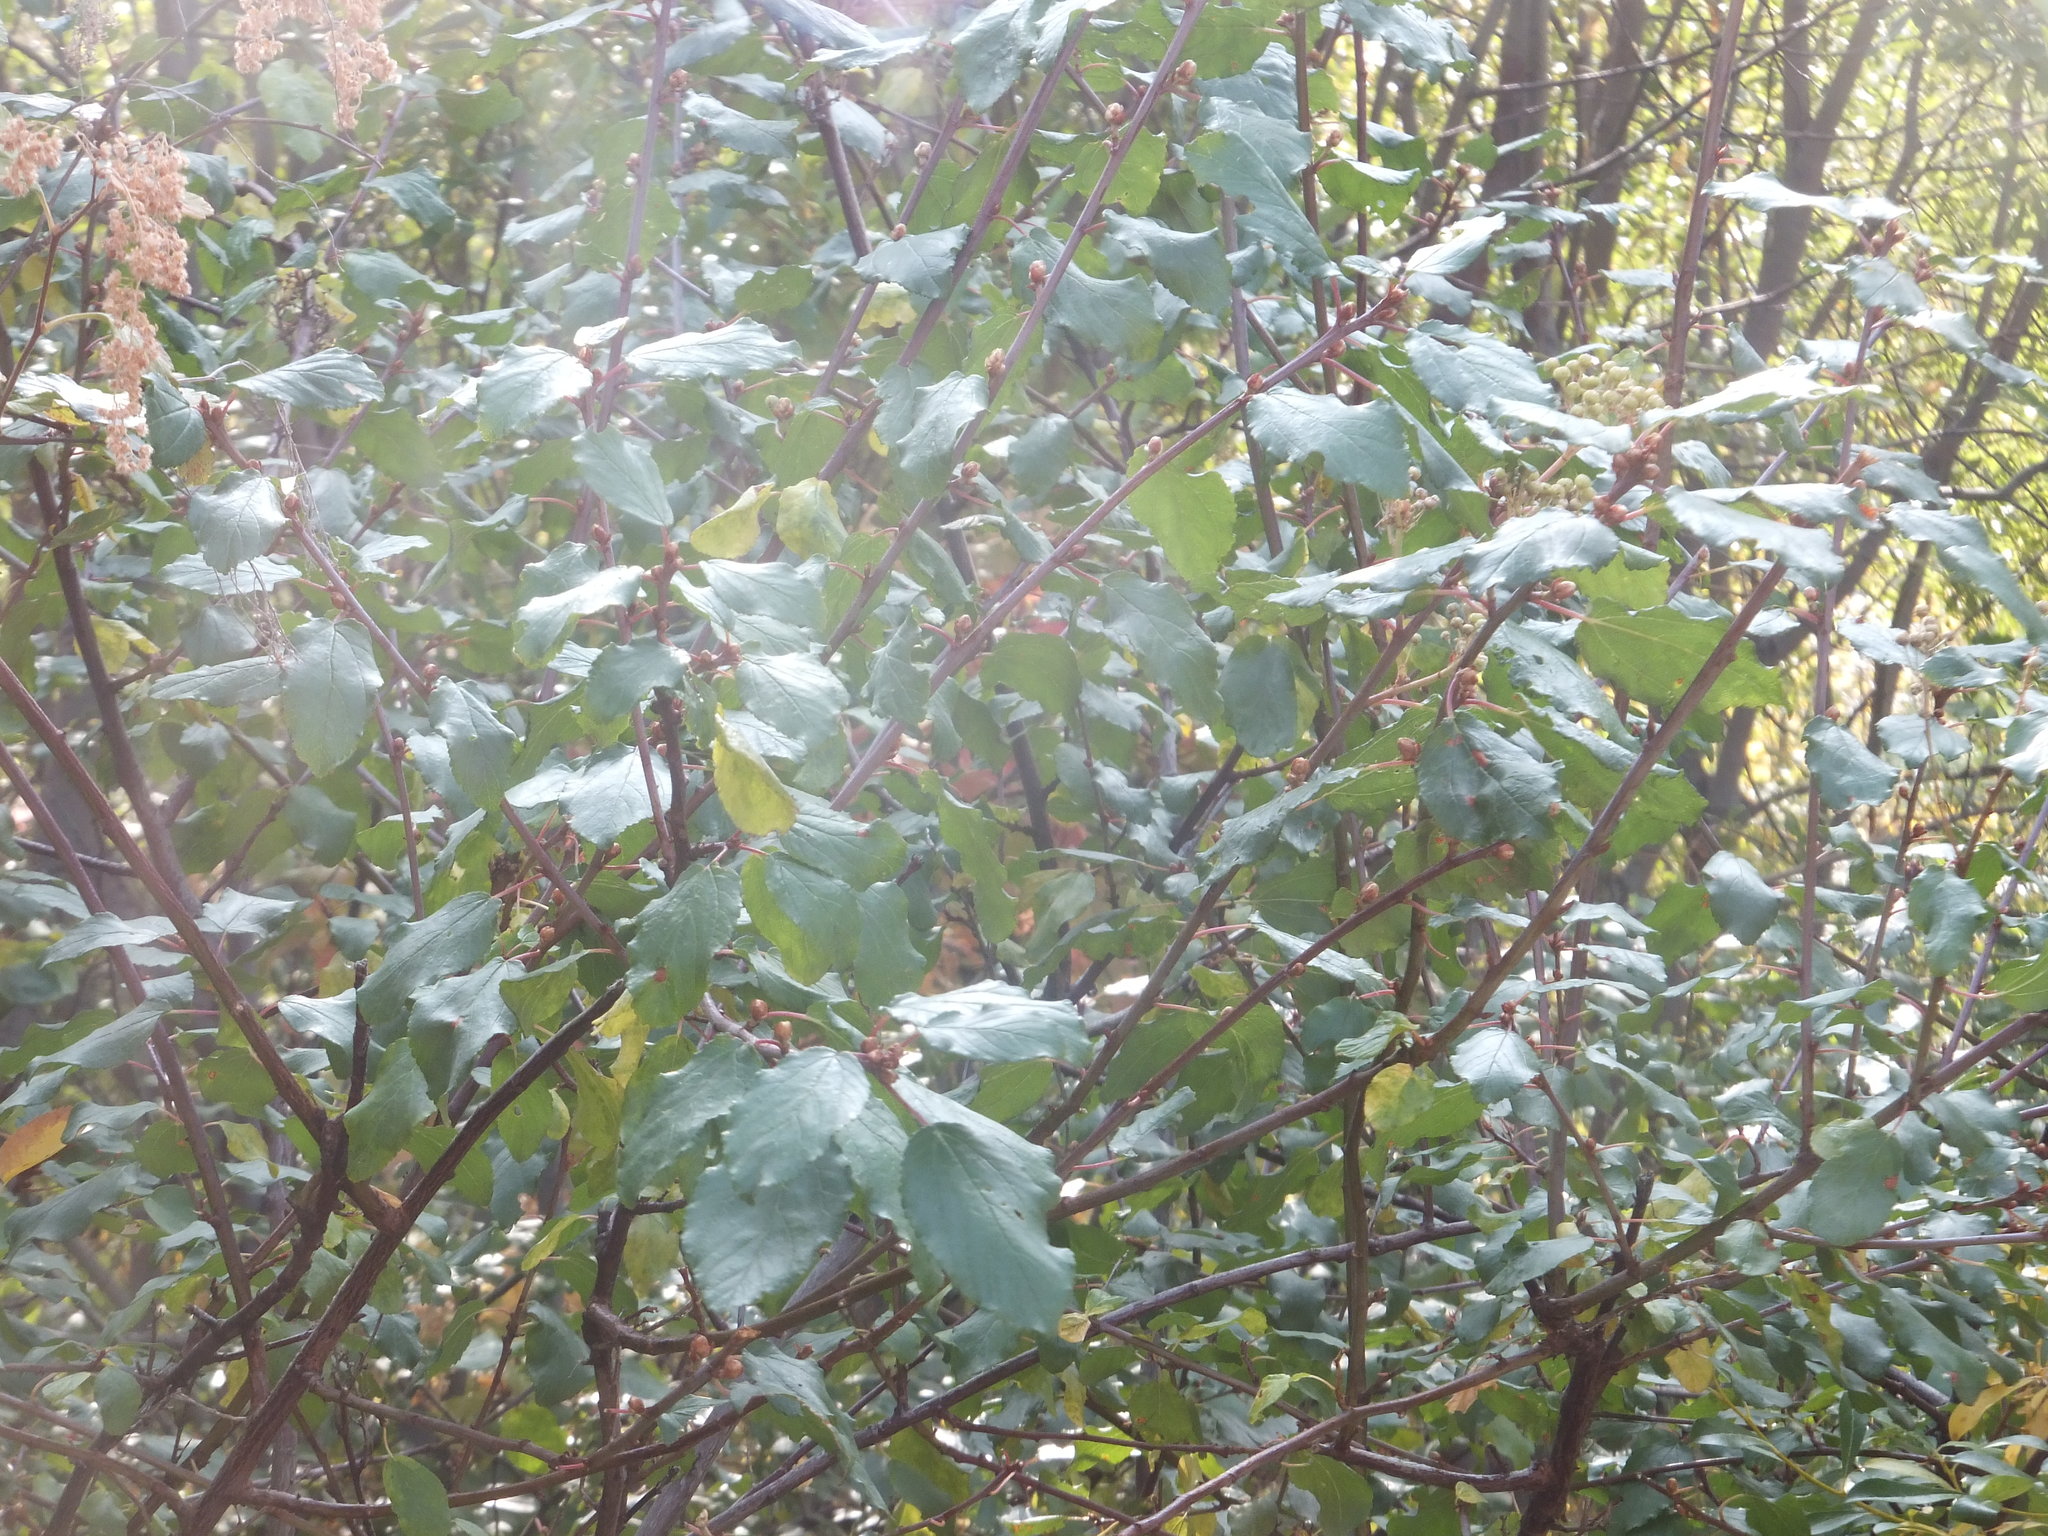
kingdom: Plantae
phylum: Tracheophyta
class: Magnoliopsida
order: Rosales
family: Rhamnaceae
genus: Ceanothus
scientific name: Ceanothus sanguineus
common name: Teatree
